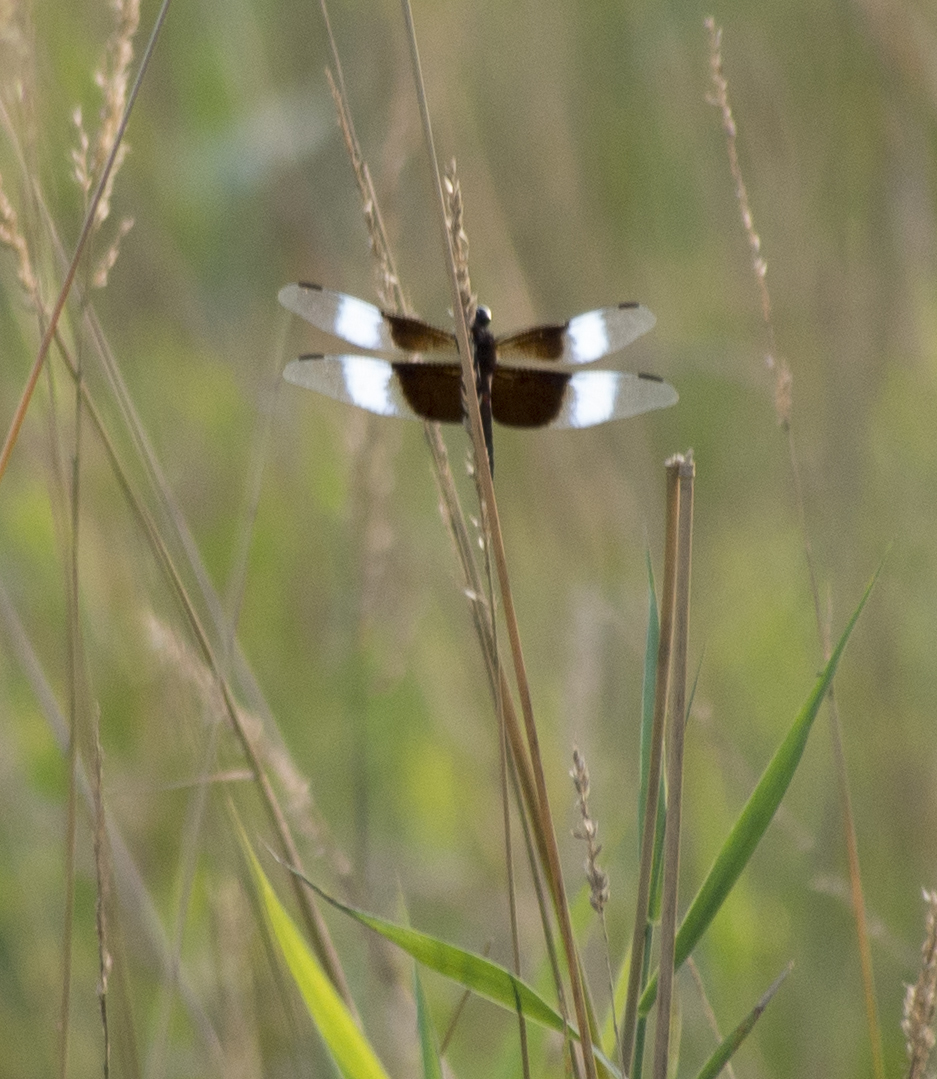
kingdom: Animalia
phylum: Arthropoda
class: Insecta
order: Odonata
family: Libellulidae
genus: Libellula
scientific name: Libellula luctuosa
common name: Widow skimmer
